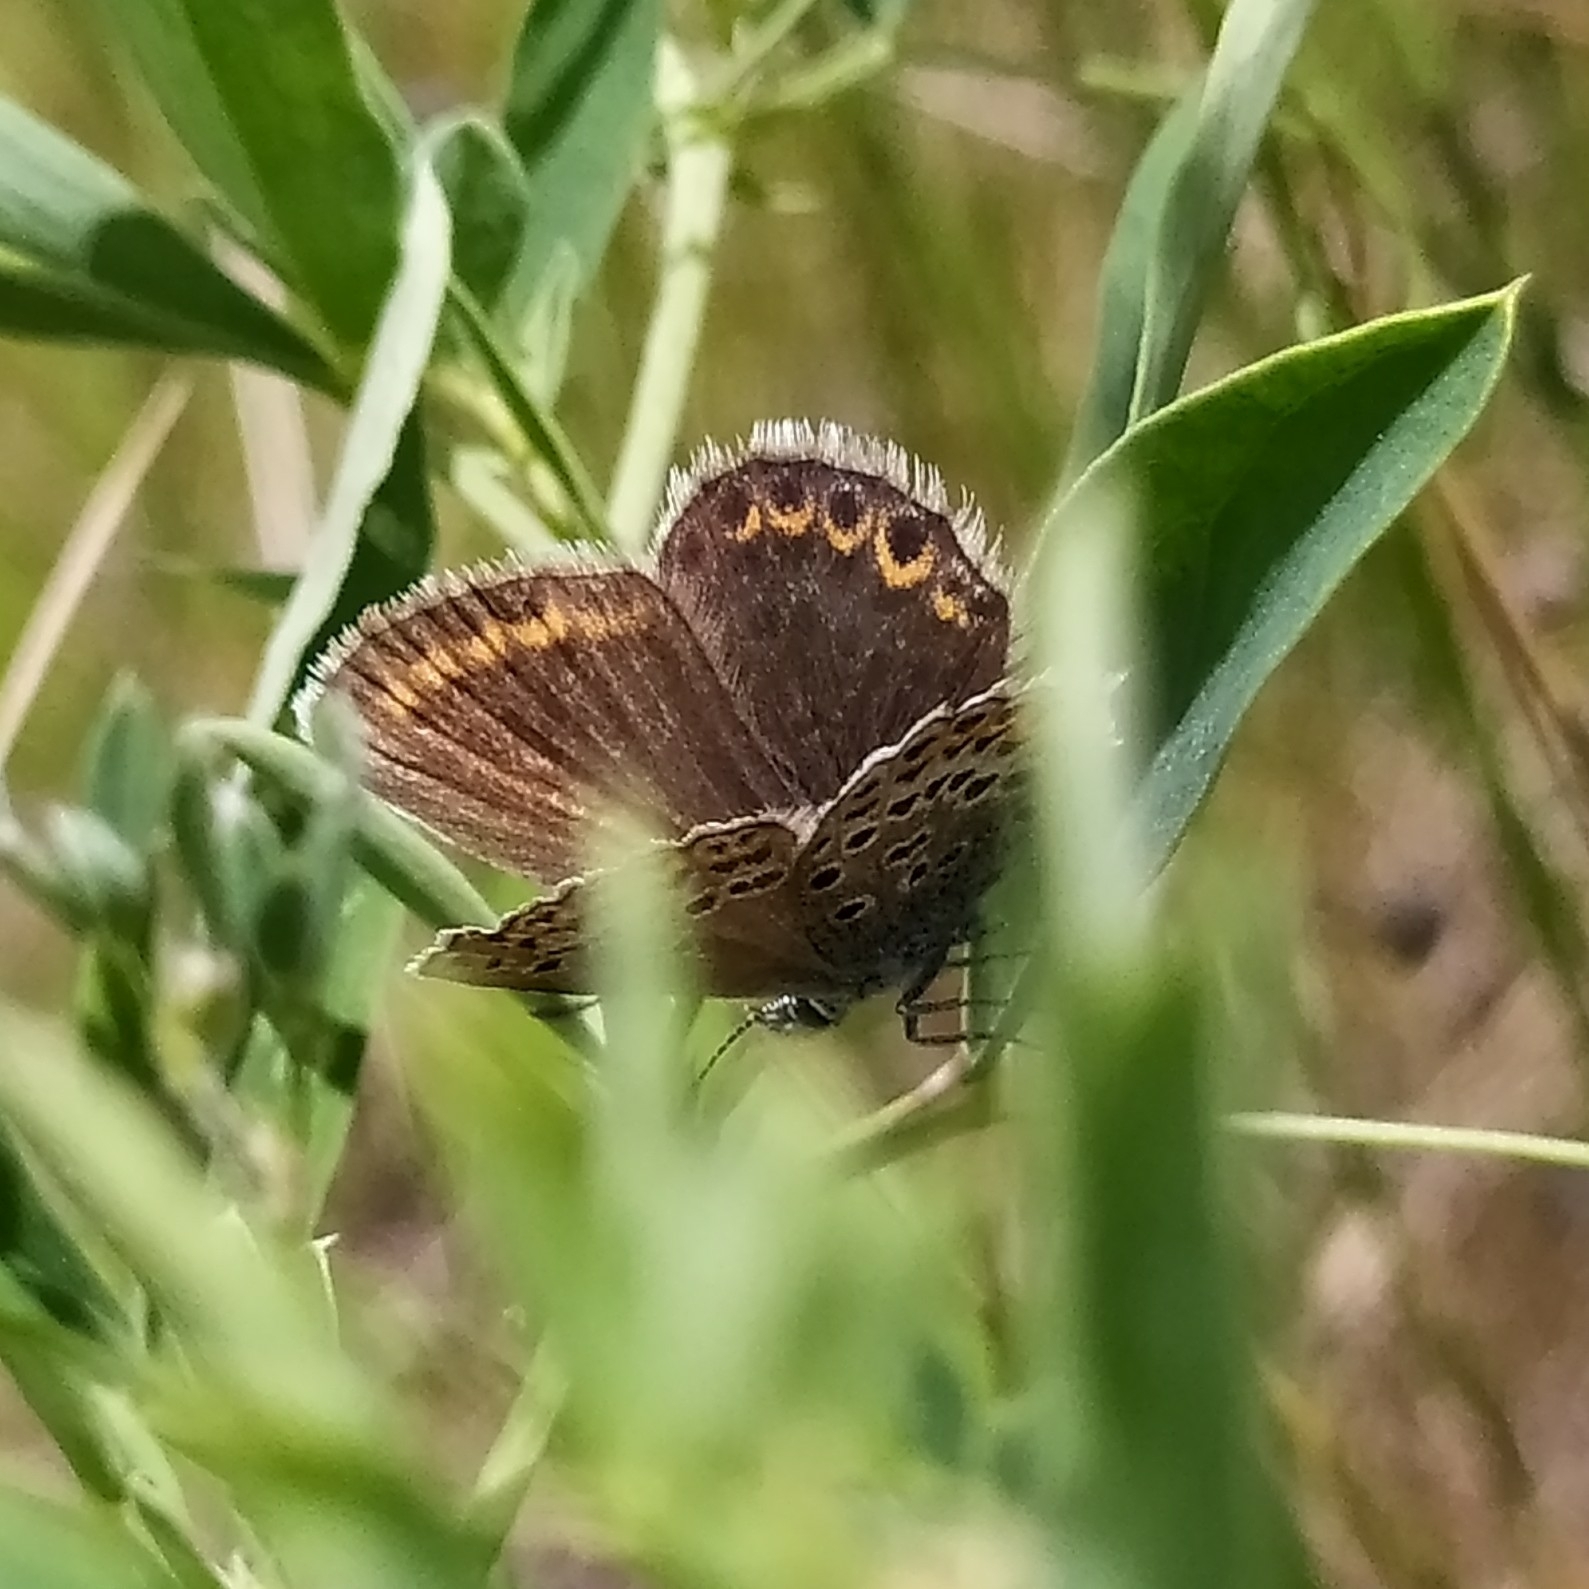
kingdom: Animalia
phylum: Arthropoda
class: Insecta
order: Lepidoptera
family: Lycaenidae
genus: Plebejus
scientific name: Plebejus argus
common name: Silver-studded blue
